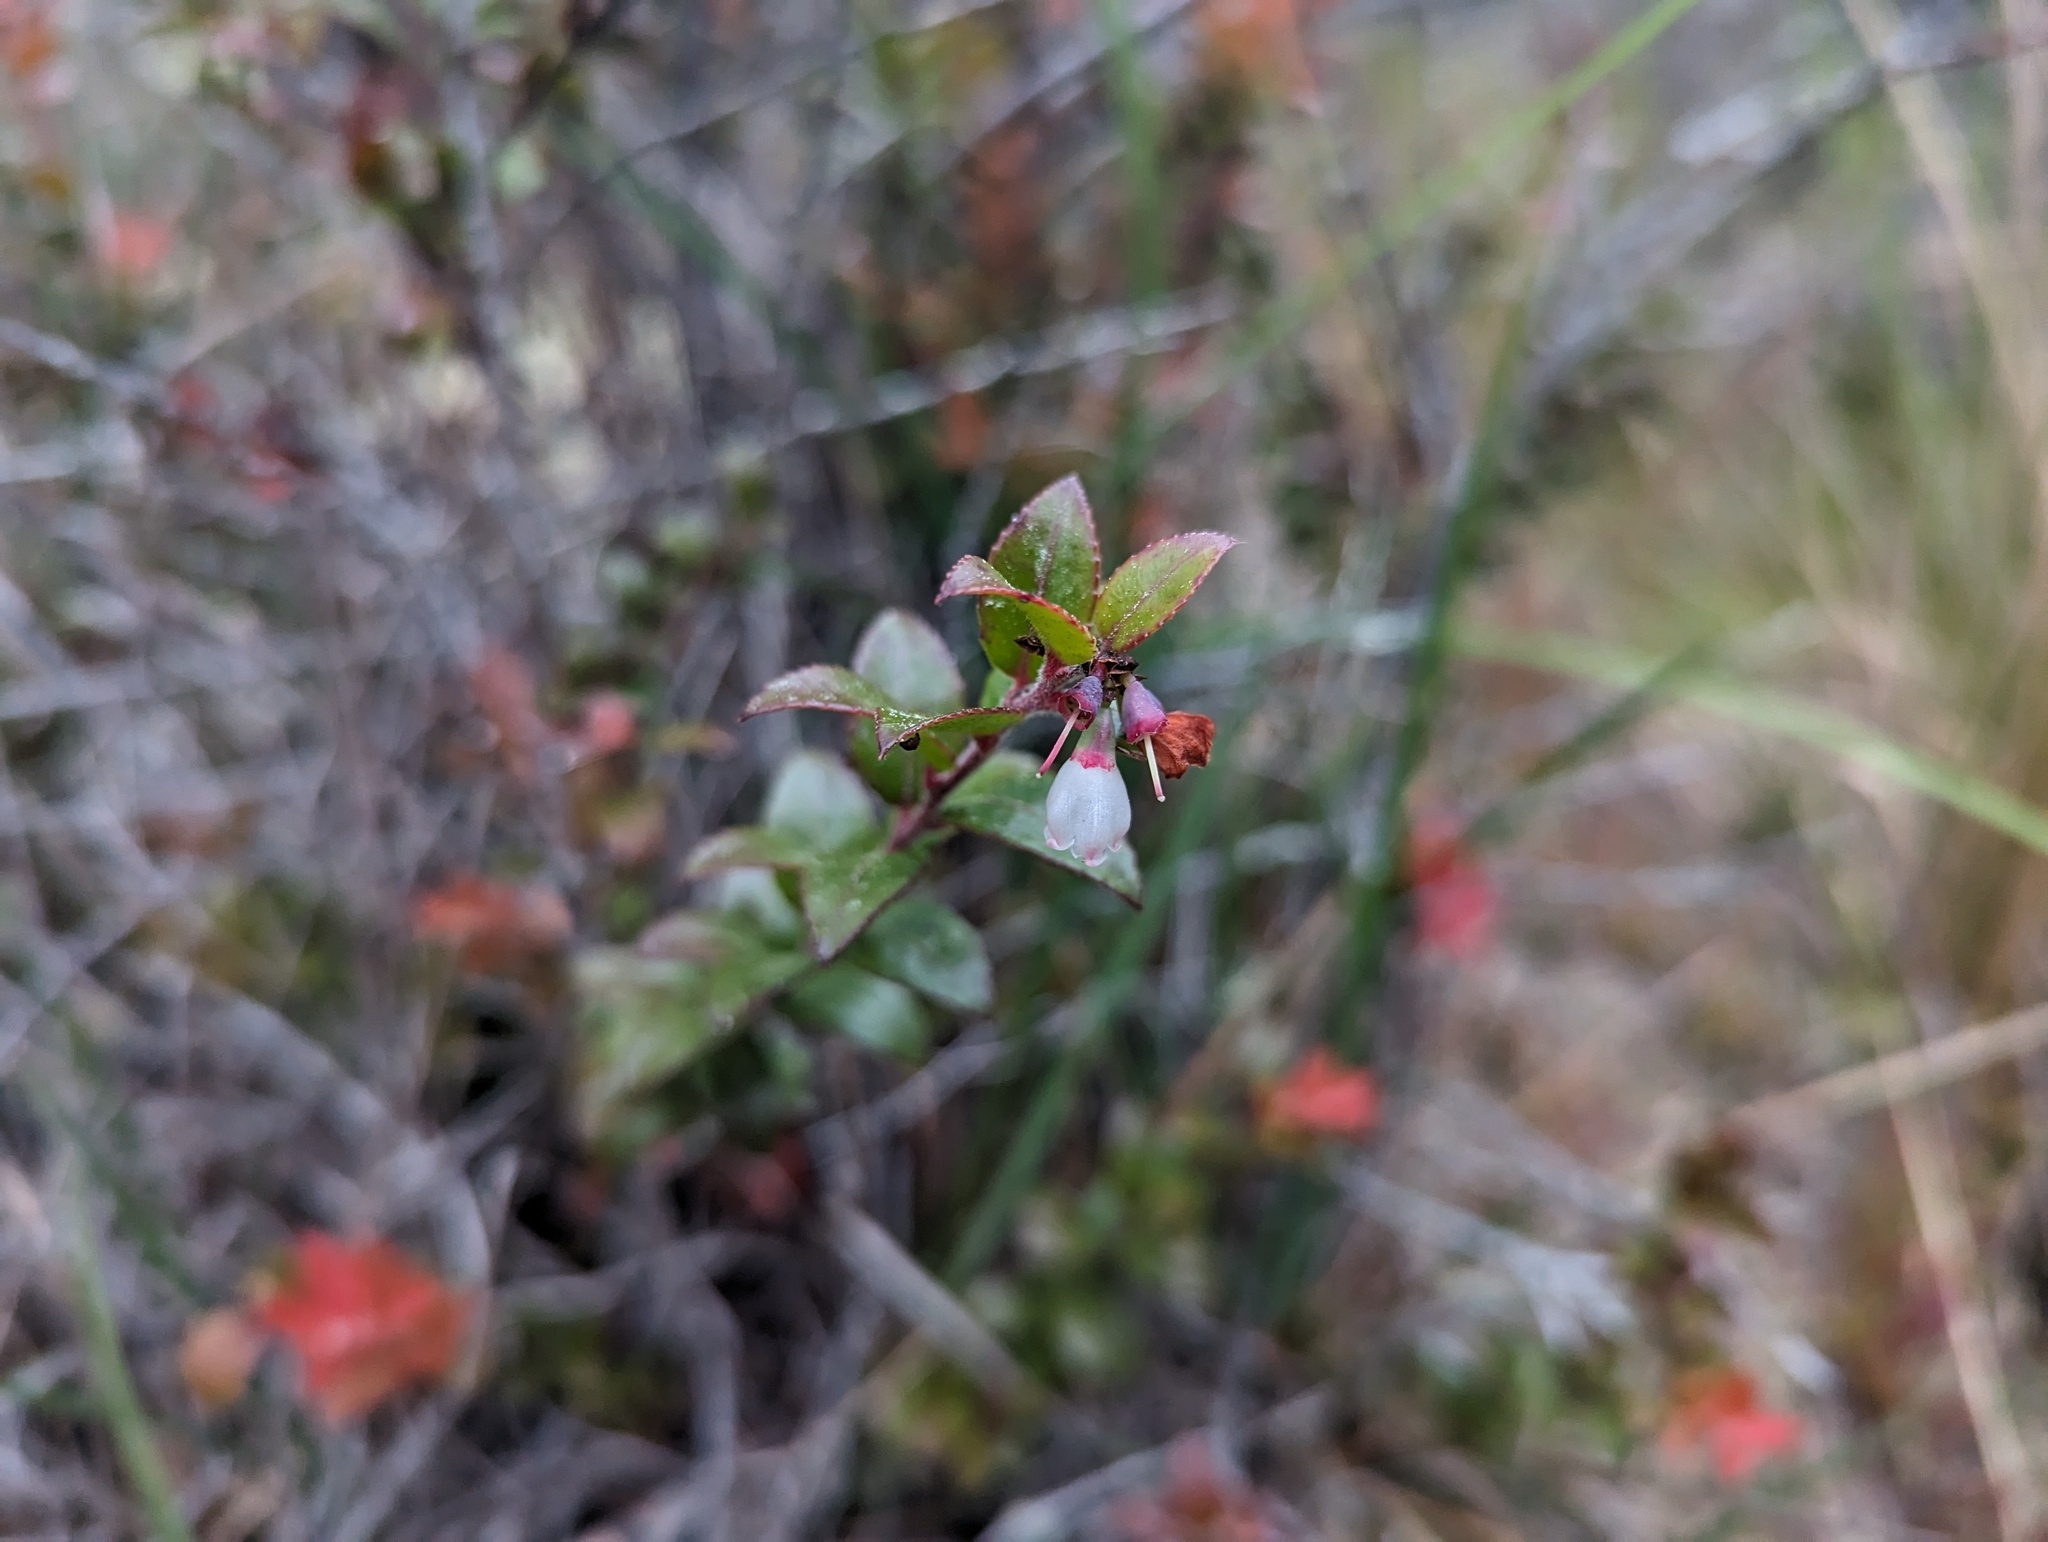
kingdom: Plantae
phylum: Tracheophyta
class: Magnoliopsida
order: Ericales
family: Ericaceae
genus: Vaccinium
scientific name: Vaccinium ovatum
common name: California-huckleberry
